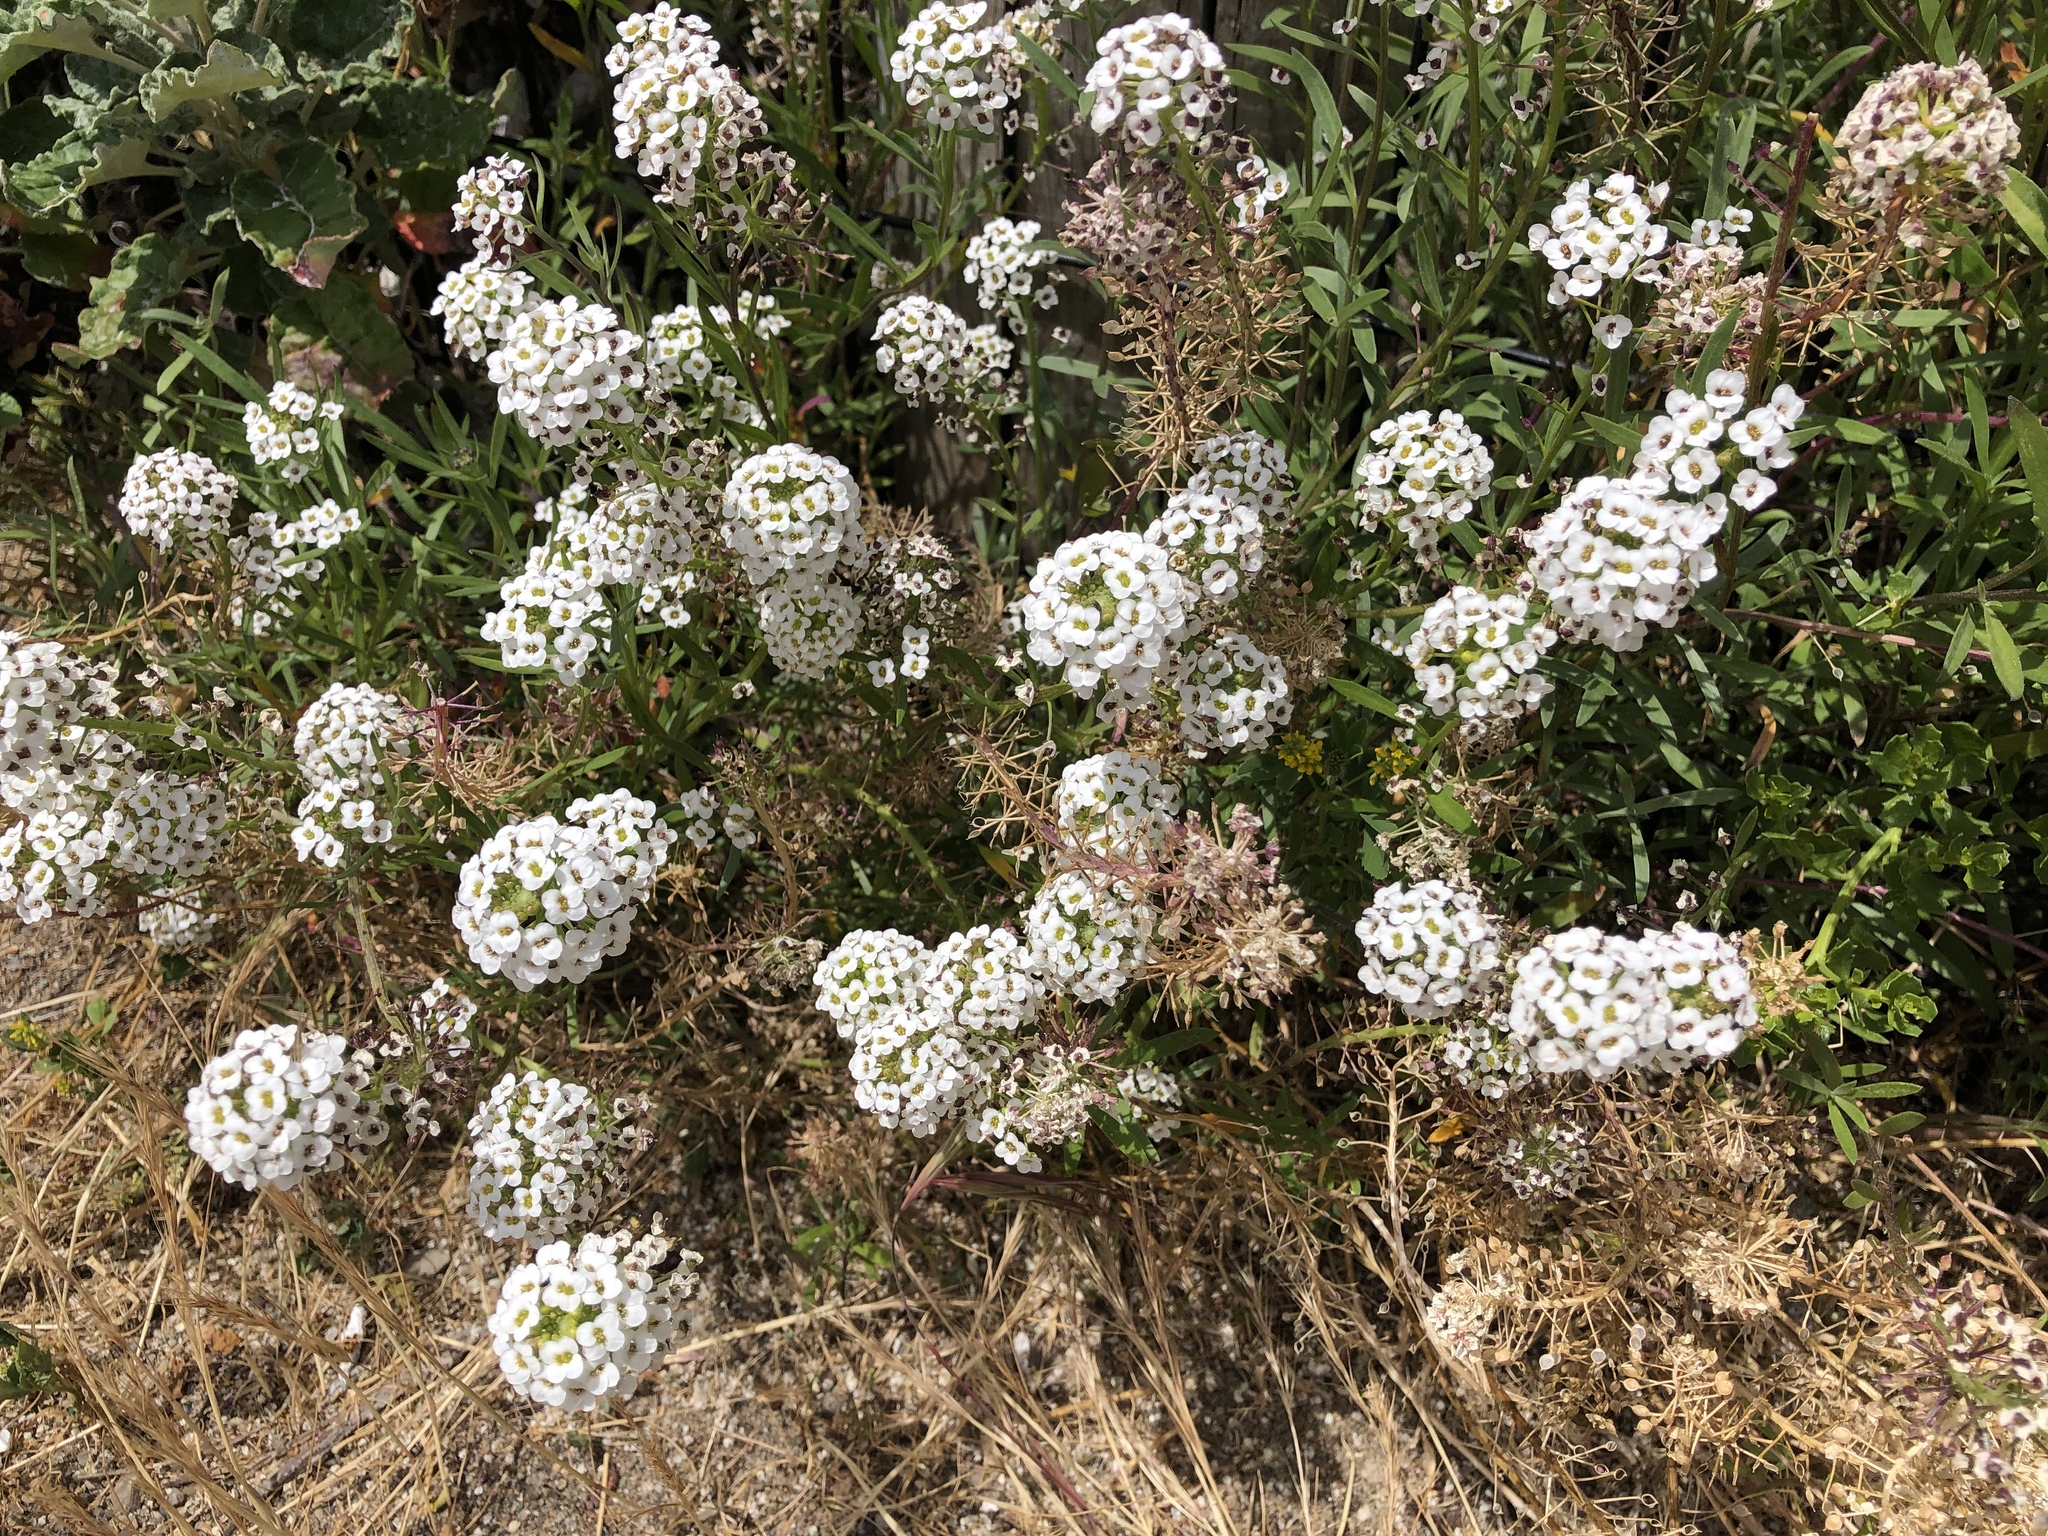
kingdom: Plantae
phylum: Tracheophyta
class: Magnoliopsida
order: Brassicales
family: Brassicaceae
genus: Lobularia
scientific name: Lobularia maritima
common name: Sweet alison
